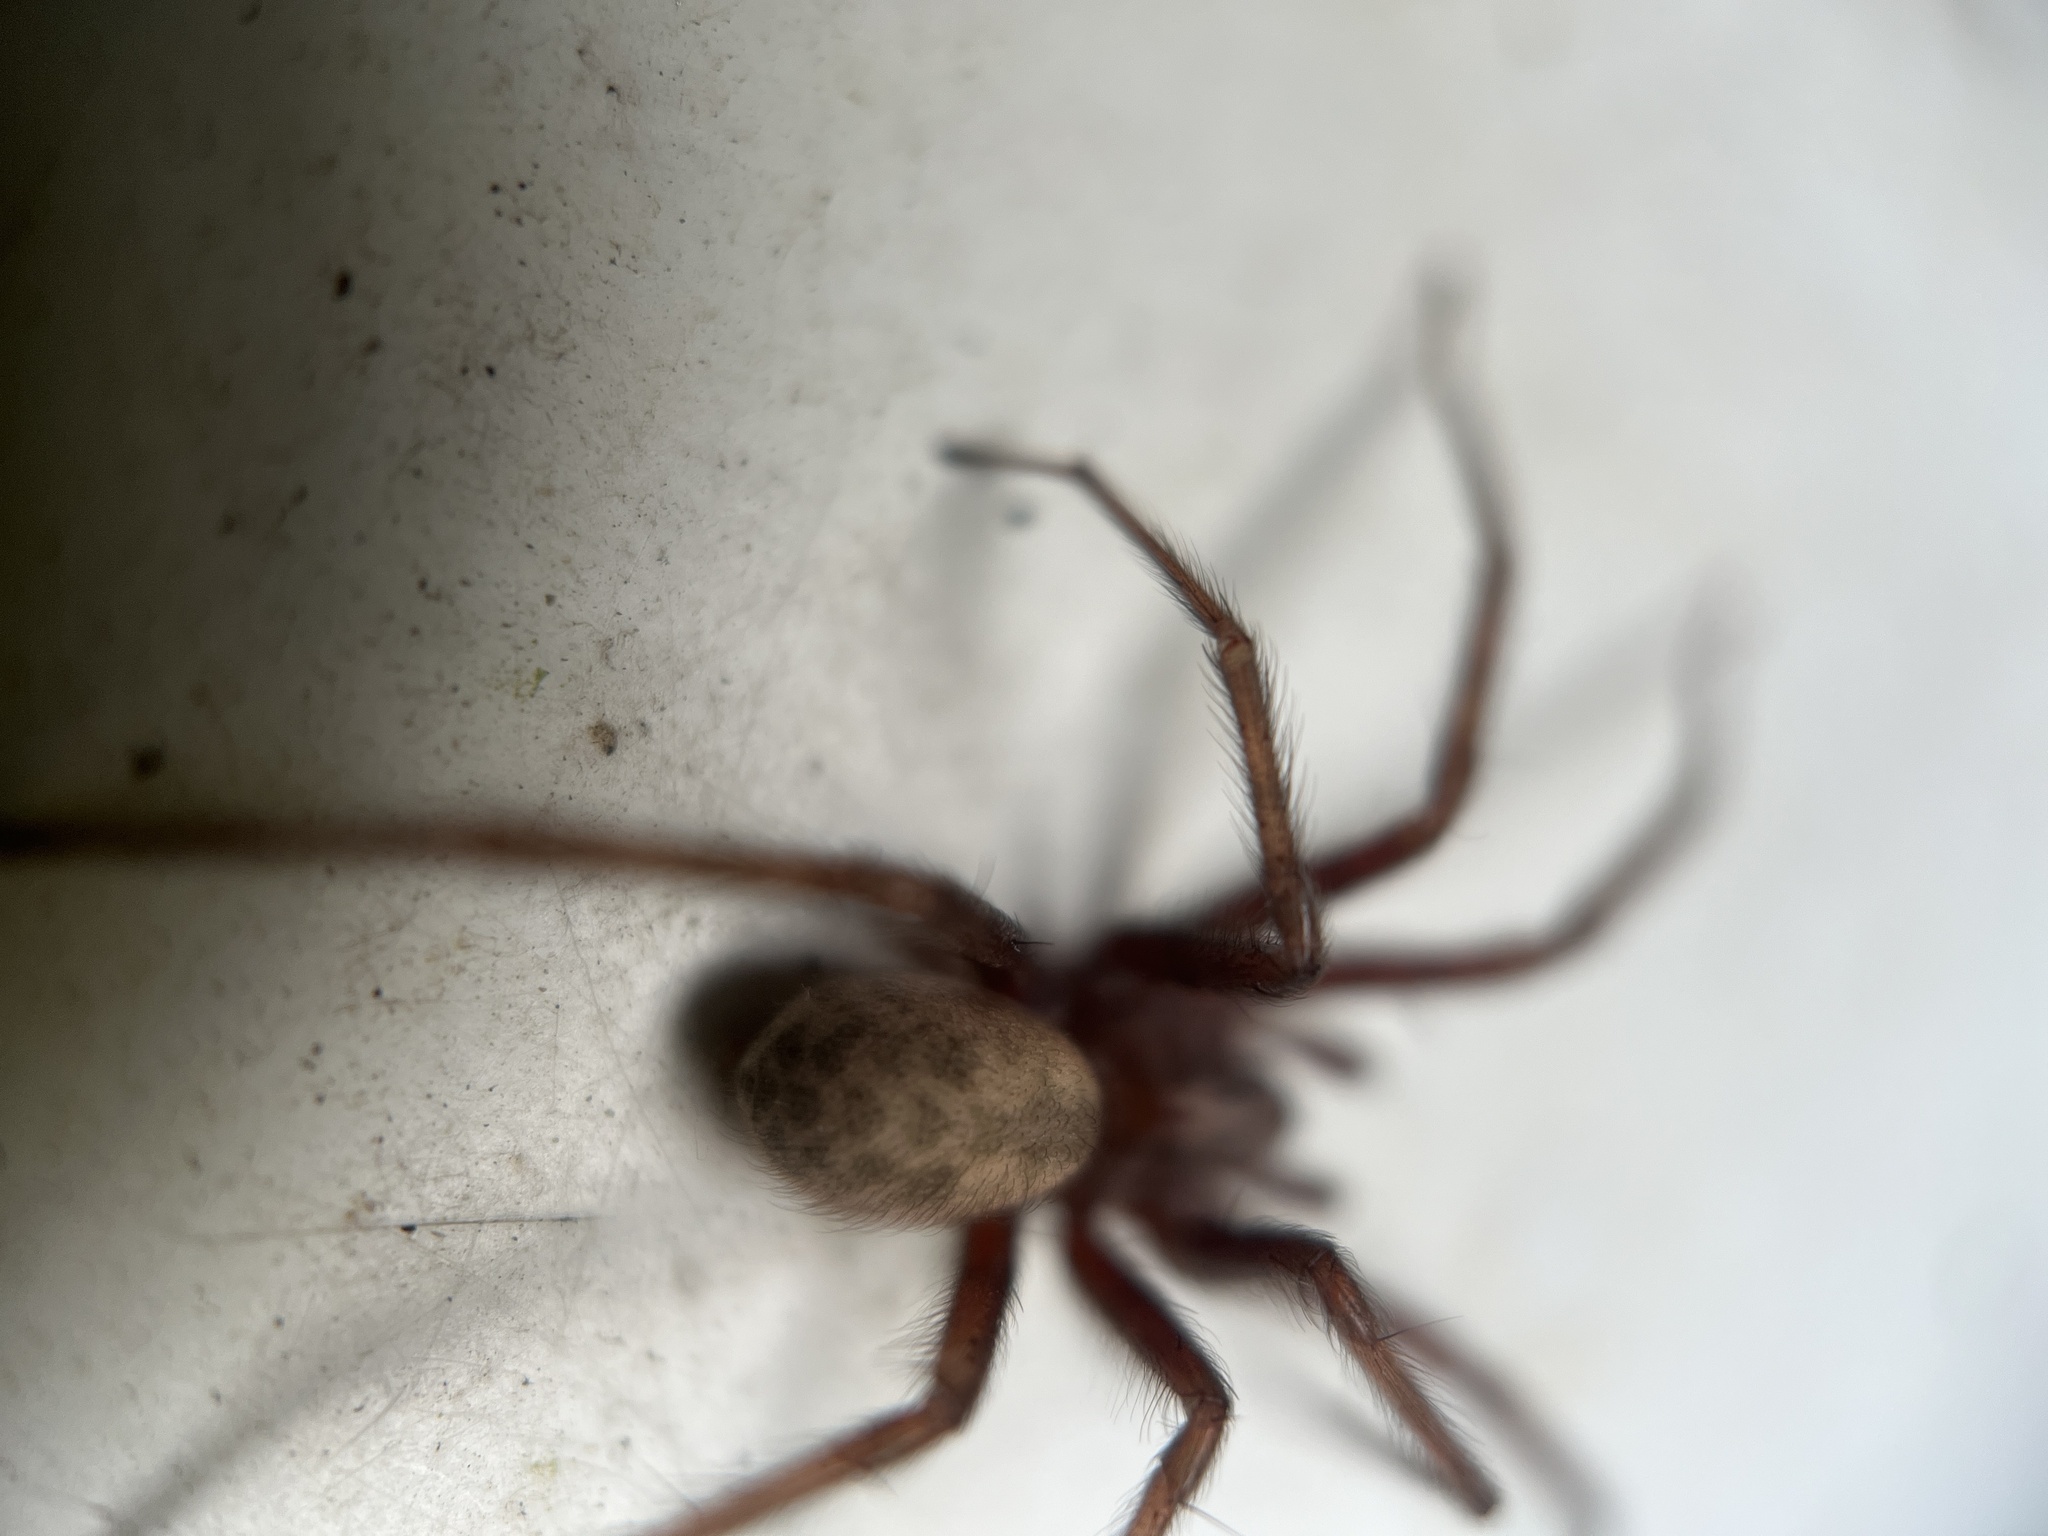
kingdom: Animalia
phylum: Arthropoda
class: Arachnida
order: Araneae
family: Agelenidae
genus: Tegenaria
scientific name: Tegenaria domestica
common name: Barn funnel weaver
